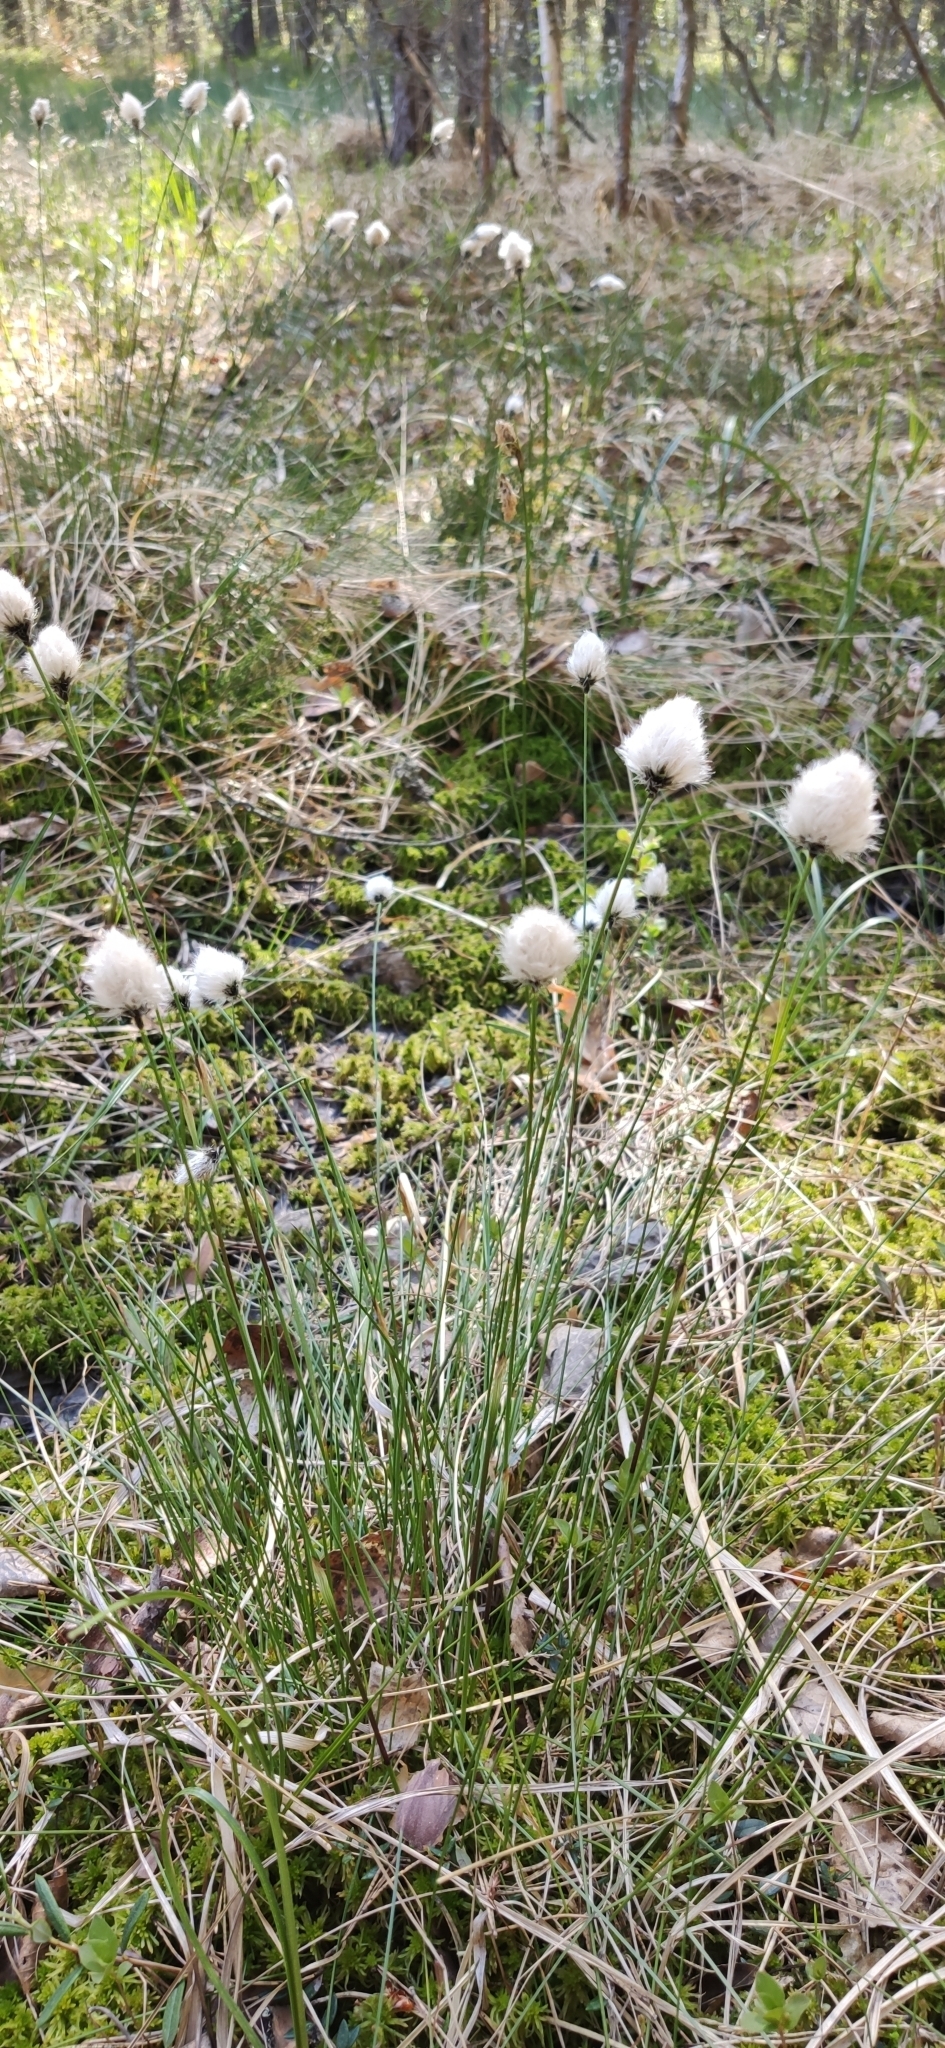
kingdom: Plantae
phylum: Tracheophyta
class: Liliopsida
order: Poales
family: Cyperaceae
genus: Eriophorum
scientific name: Eriophorum vaginatum
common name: Hare's-tail cottongrass
